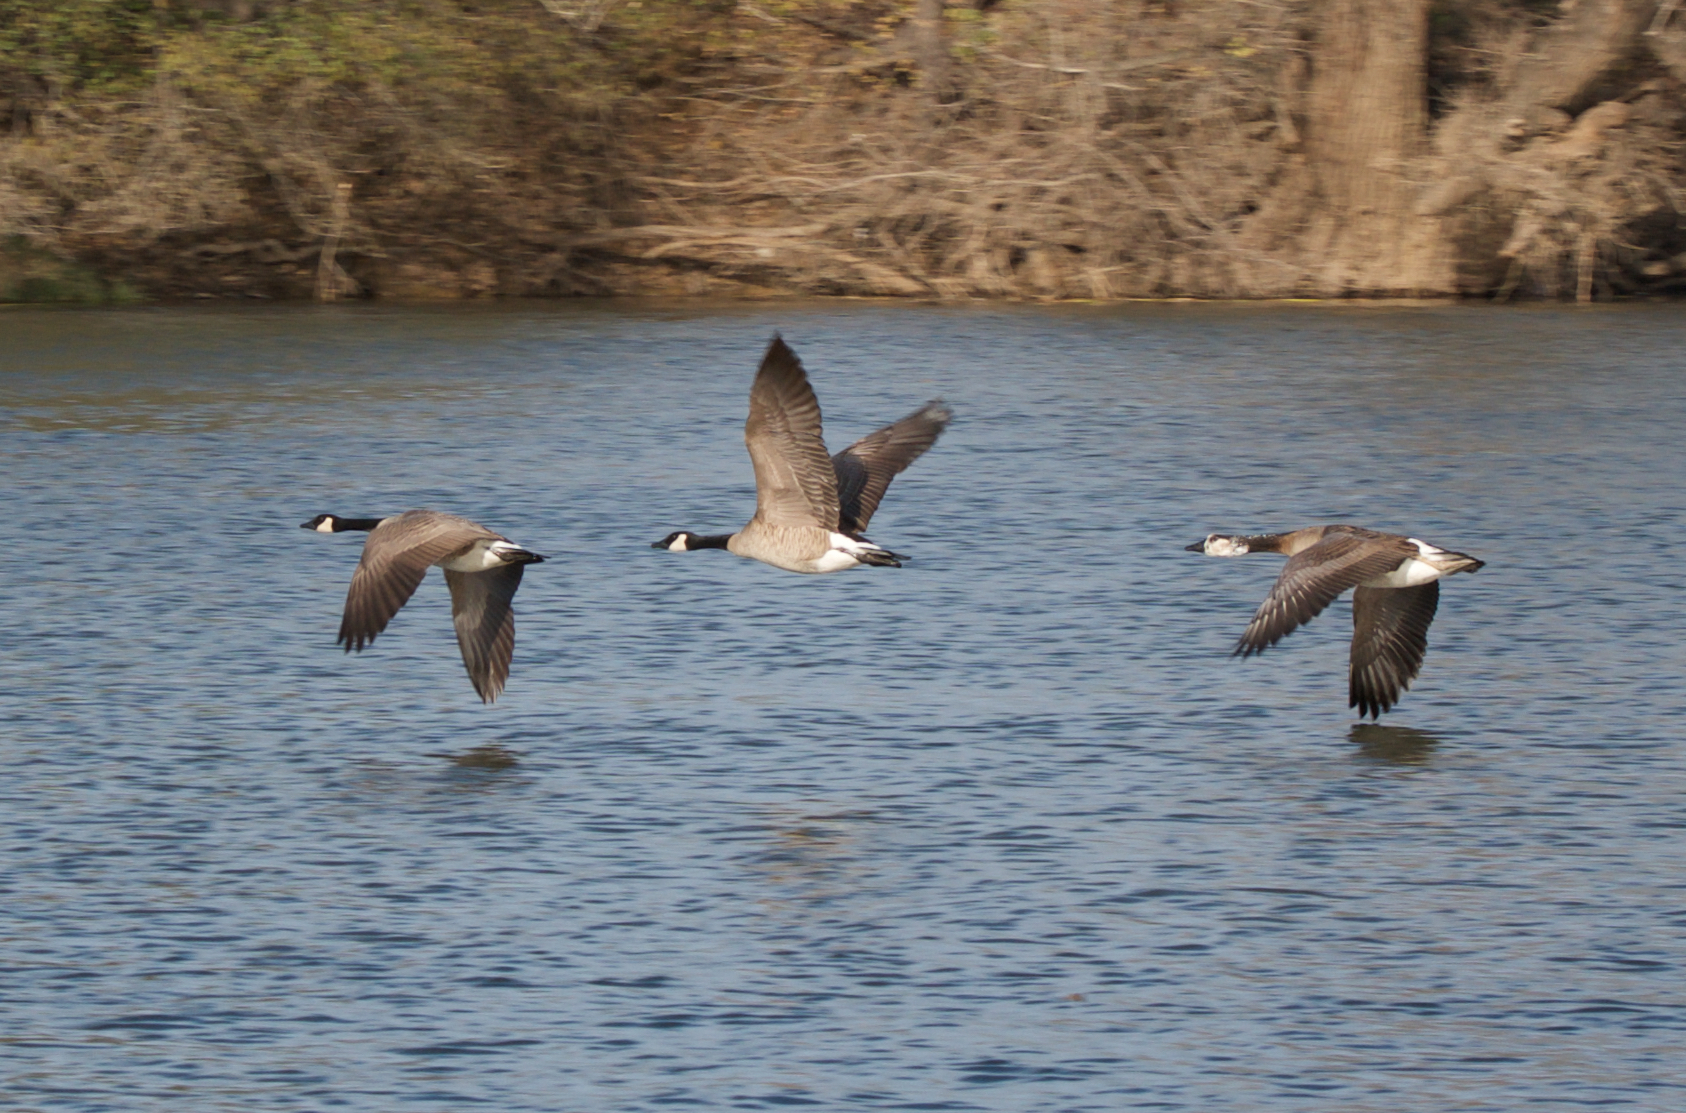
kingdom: Animalia
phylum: Chordata
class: Aves
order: Anseriformes
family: Anatidae
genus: Branta
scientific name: Branta canadensis
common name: Canada goose
